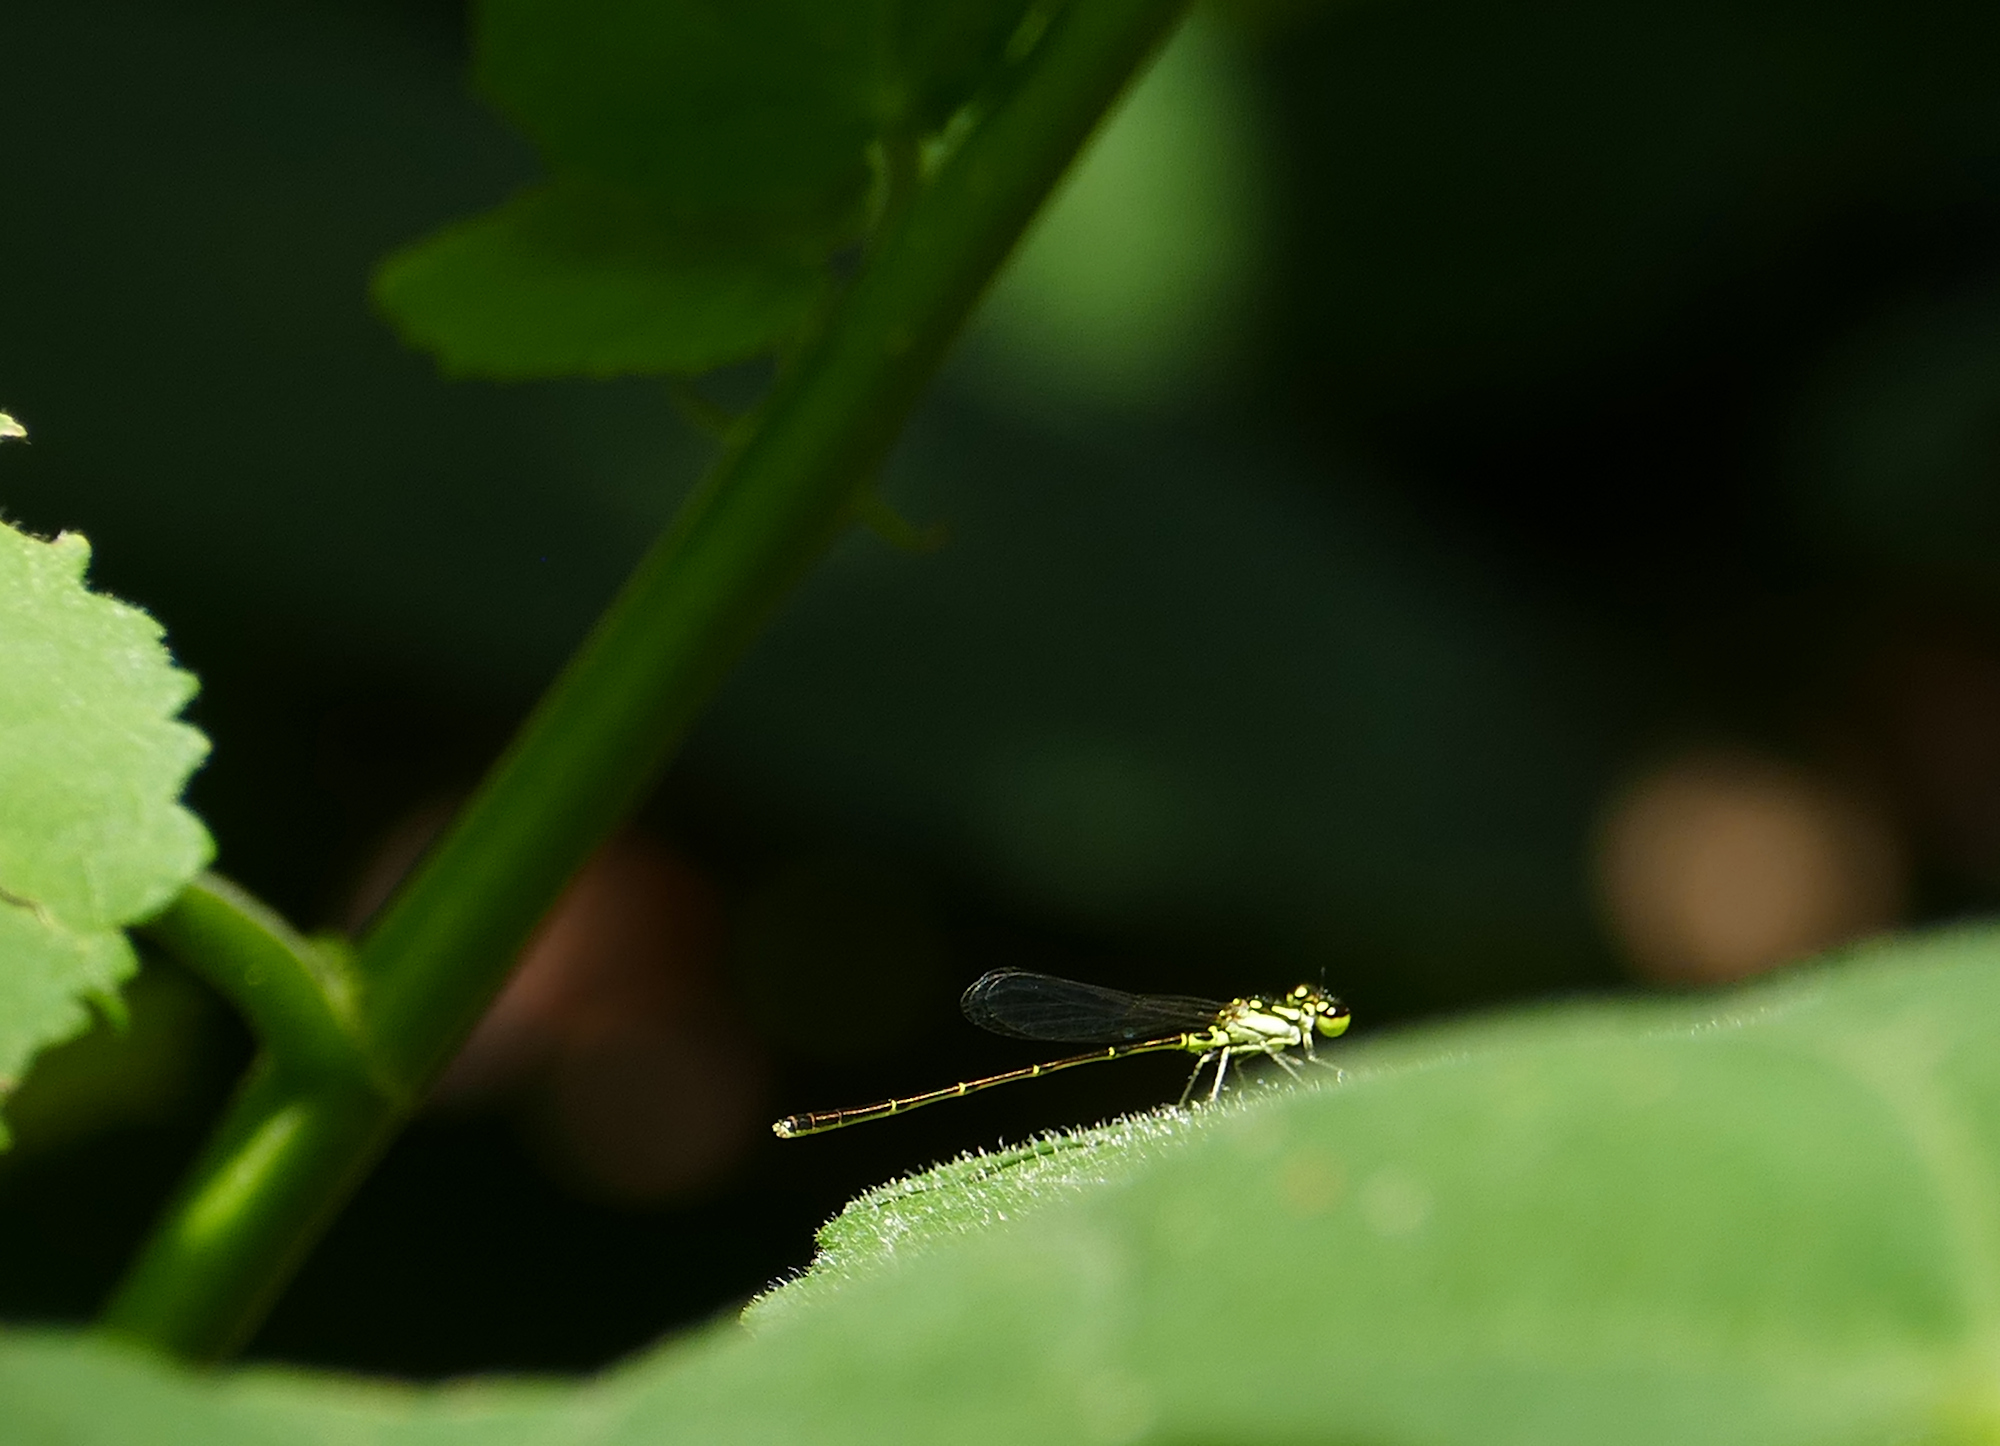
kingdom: Animalia
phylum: Arthropoda
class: Insecta
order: Odonata
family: Coenagrionidae
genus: Ischnura
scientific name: Ischnura posita
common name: Fragile forktail
